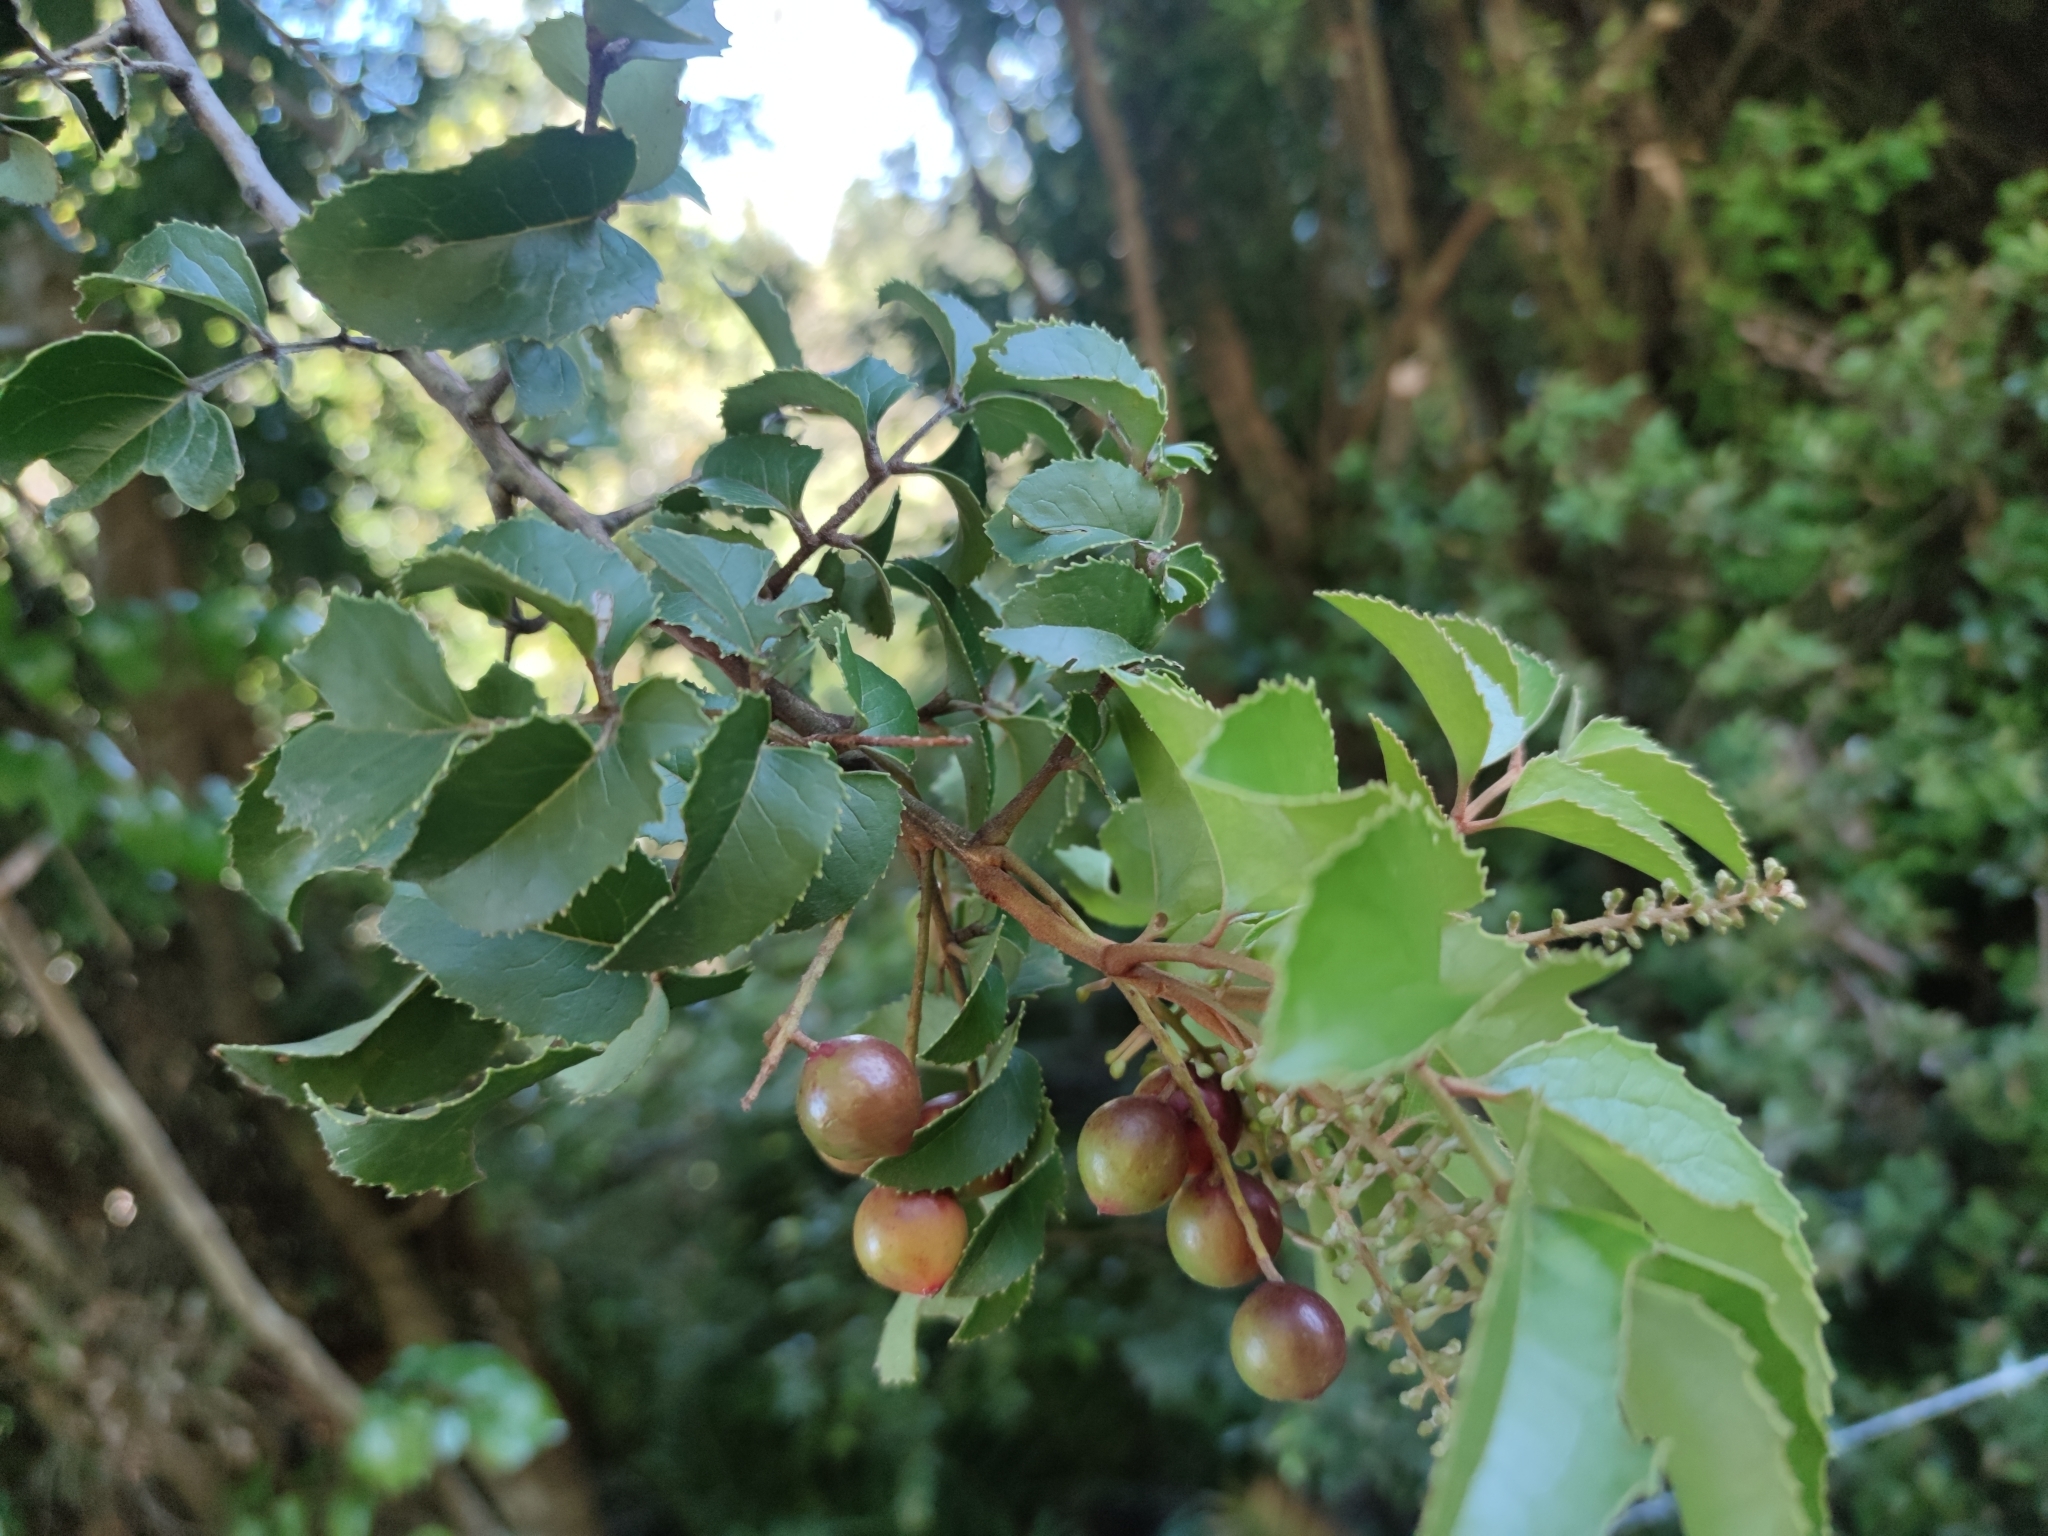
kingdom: Plantae
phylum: Tracheophyta
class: Magnoliopsida
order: Proteales
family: Proteaceae
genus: Gevuina
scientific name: Gevuina avellana
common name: Chilean hazel
